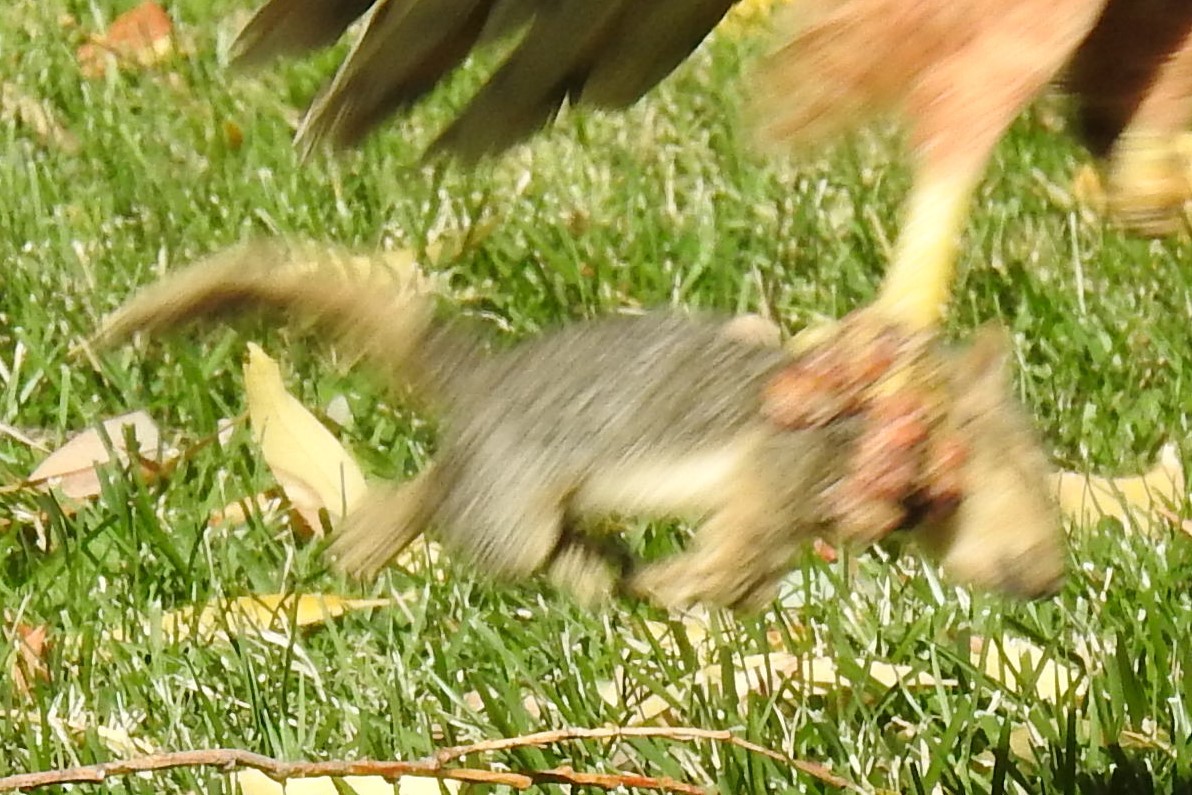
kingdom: Animalia
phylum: Chordata
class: Mammalia
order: Rodentia
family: Sciuridae
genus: Sciurus
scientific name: Sciurus niger
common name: Fox squirrel
